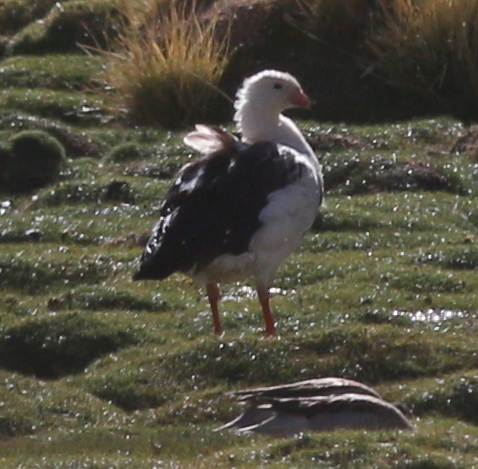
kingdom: Animalia
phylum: Chordata
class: Aves
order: Anseriformes
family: Anatidae
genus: Chloephaga
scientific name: Chloephaga melanoptera
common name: Andean goose
